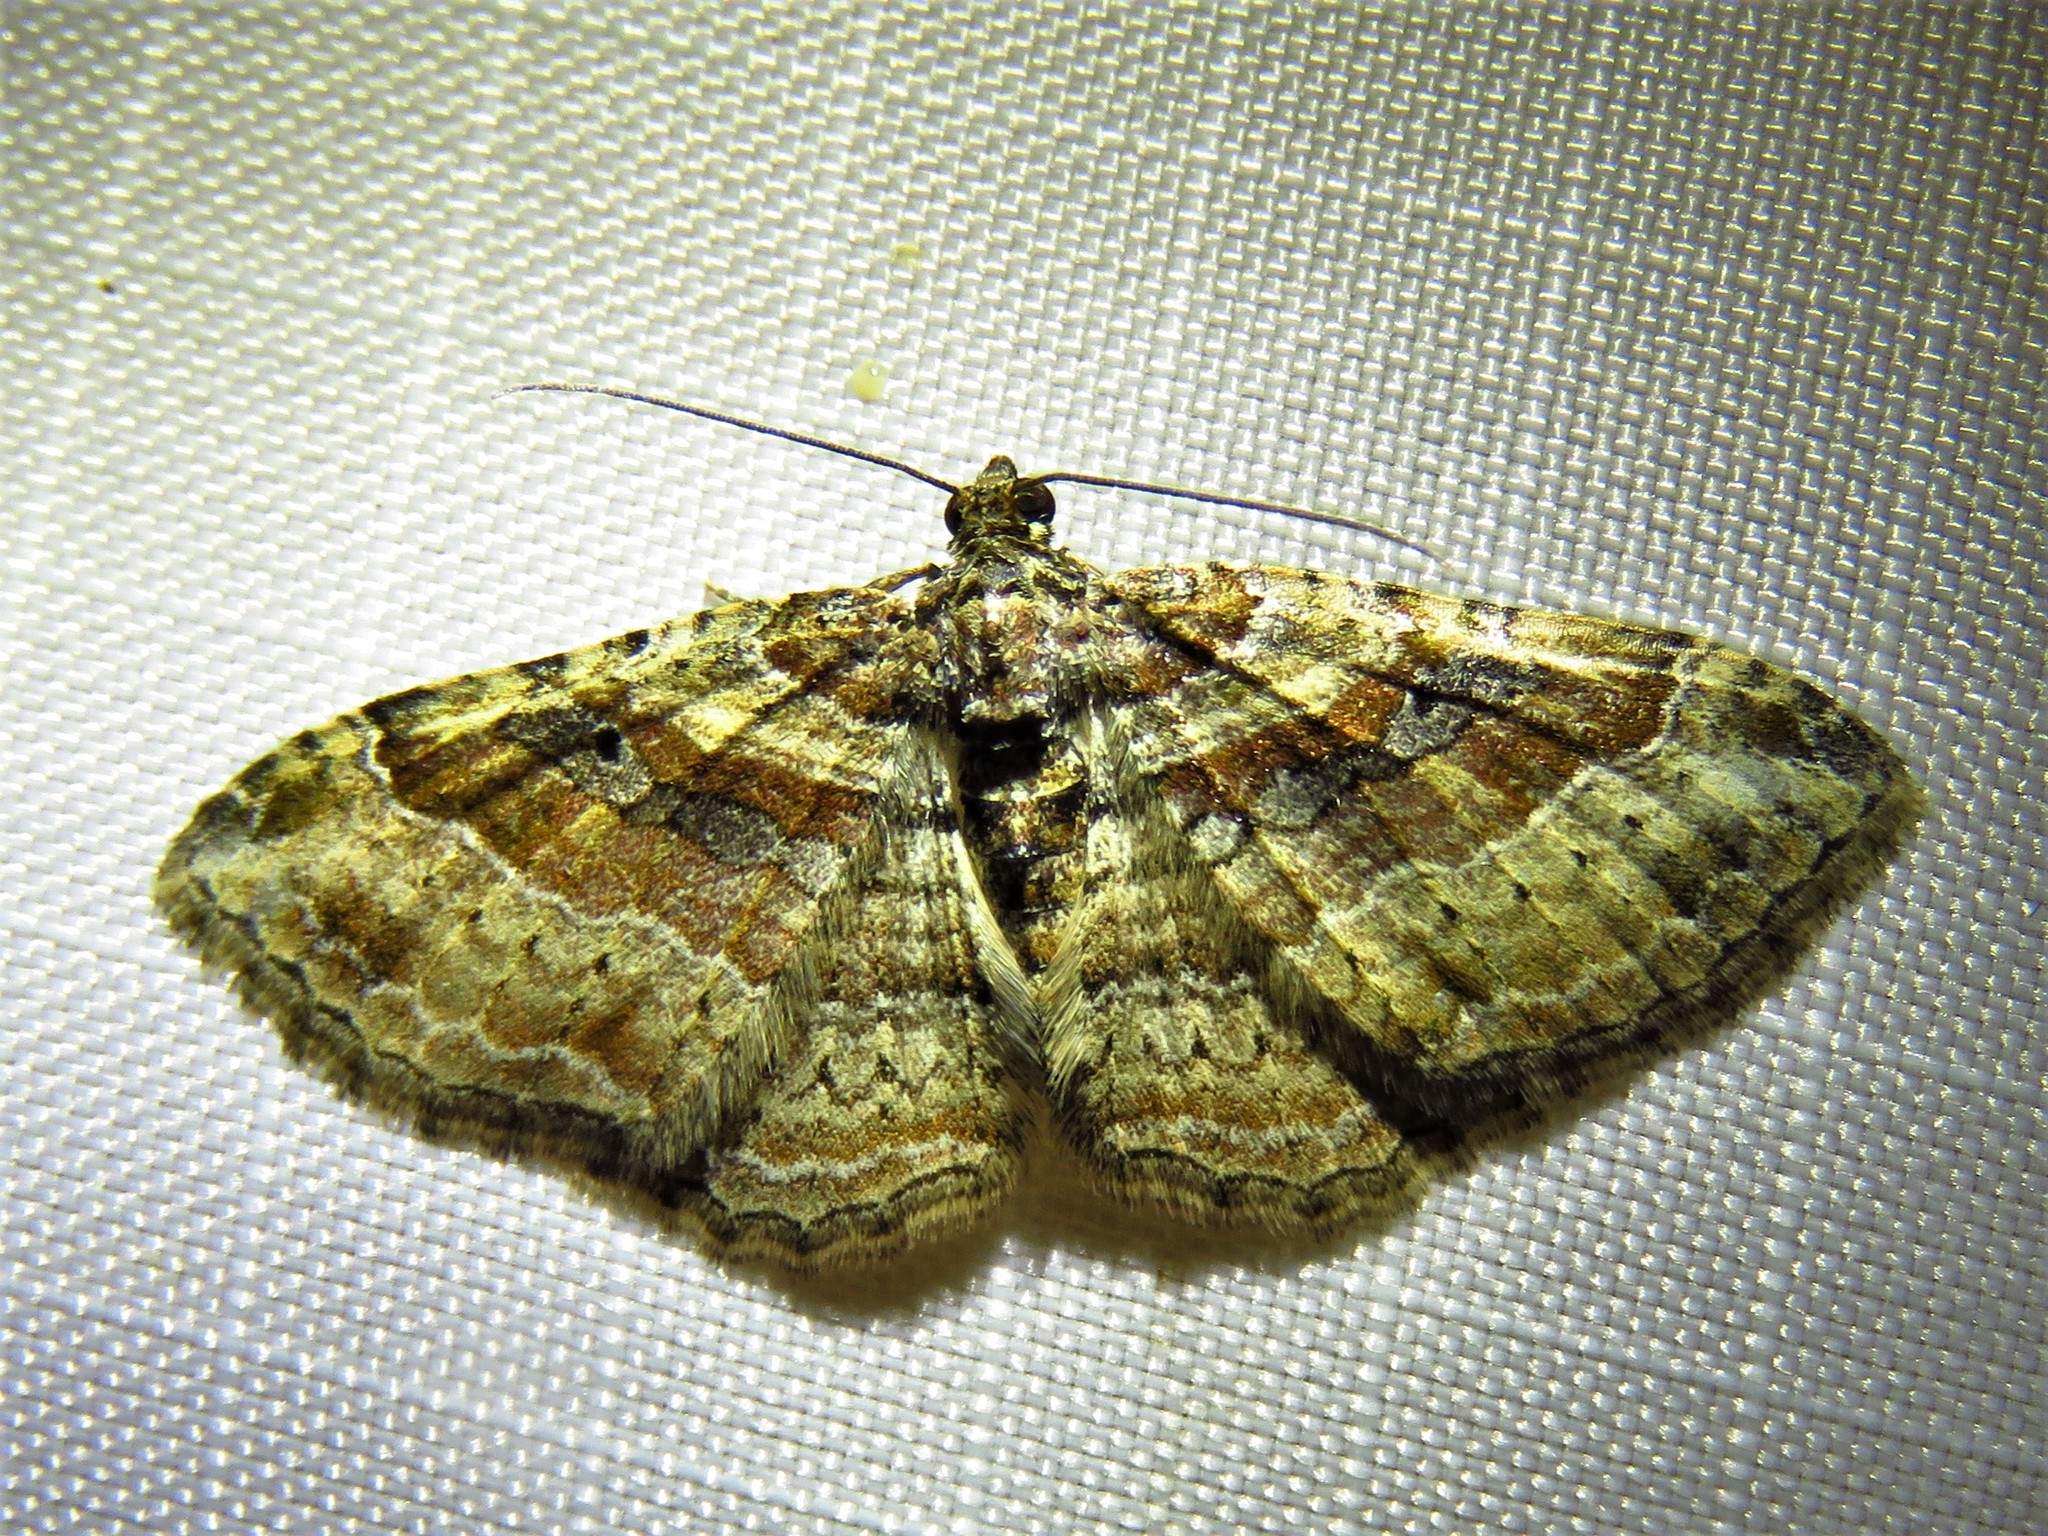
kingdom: Animalia
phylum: Arthropoda
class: Insecta
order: Lepidoptera
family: Geometridae
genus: Costaconvexa
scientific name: Costaconvexa centrostrigaria
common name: Bent-line carpet
